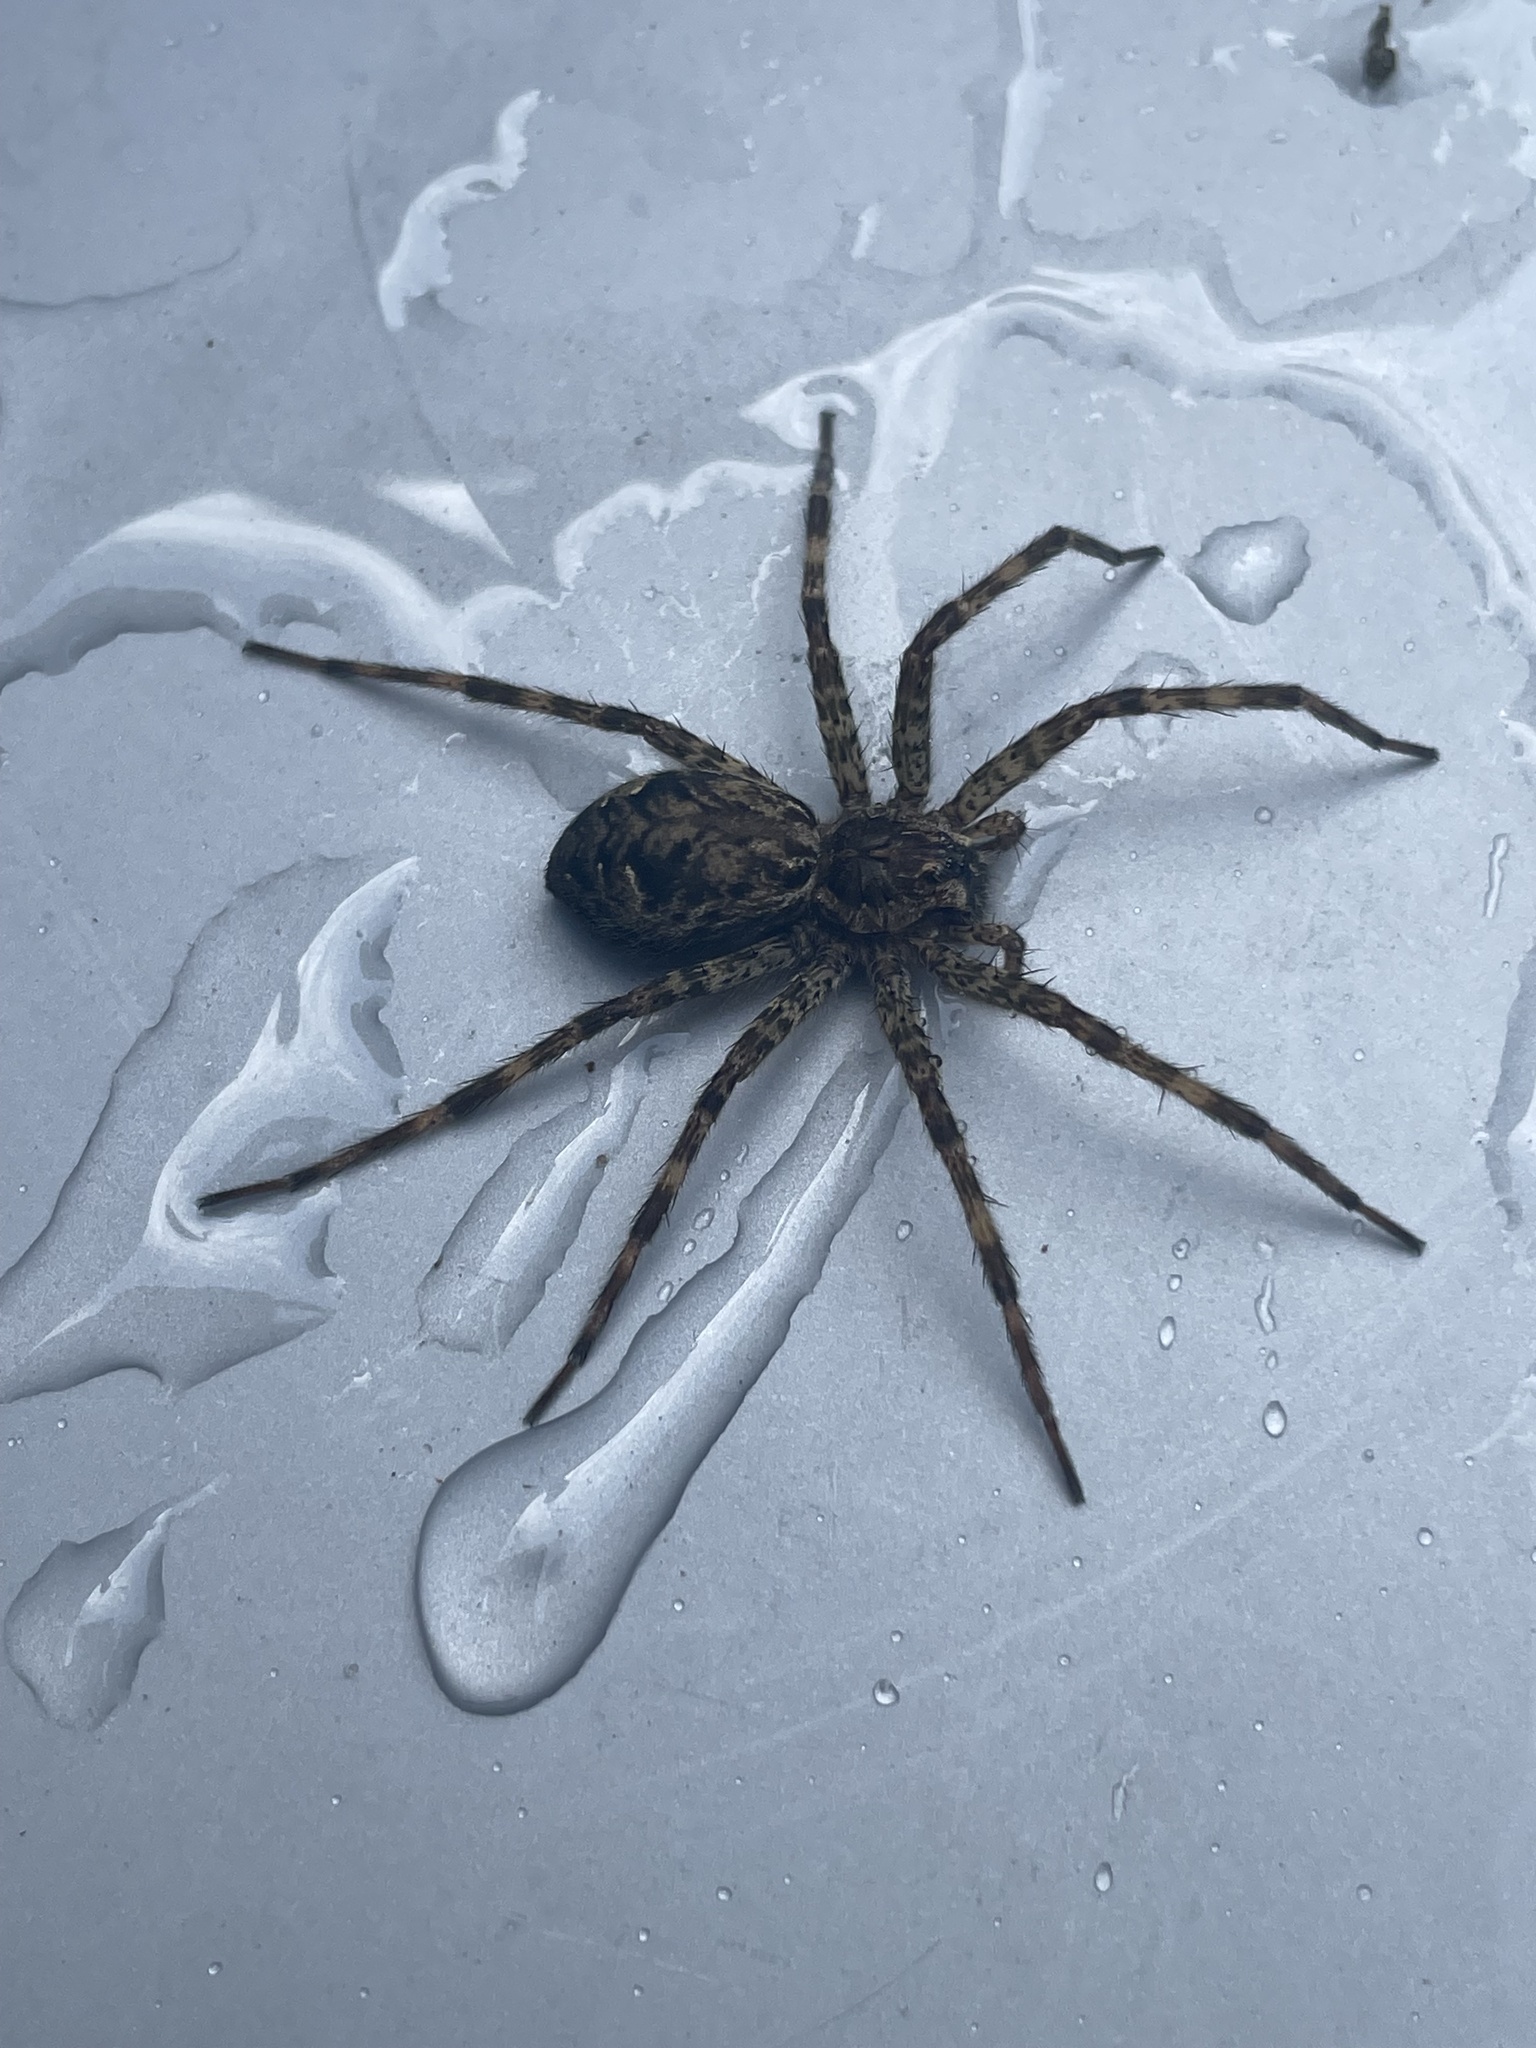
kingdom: Animalia
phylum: Arthropoda
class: Arachnida
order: Araneae
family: Pisauridae
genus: Dolomedes
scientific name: Dolomedes tenebrosus
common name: Dark fishing spider
